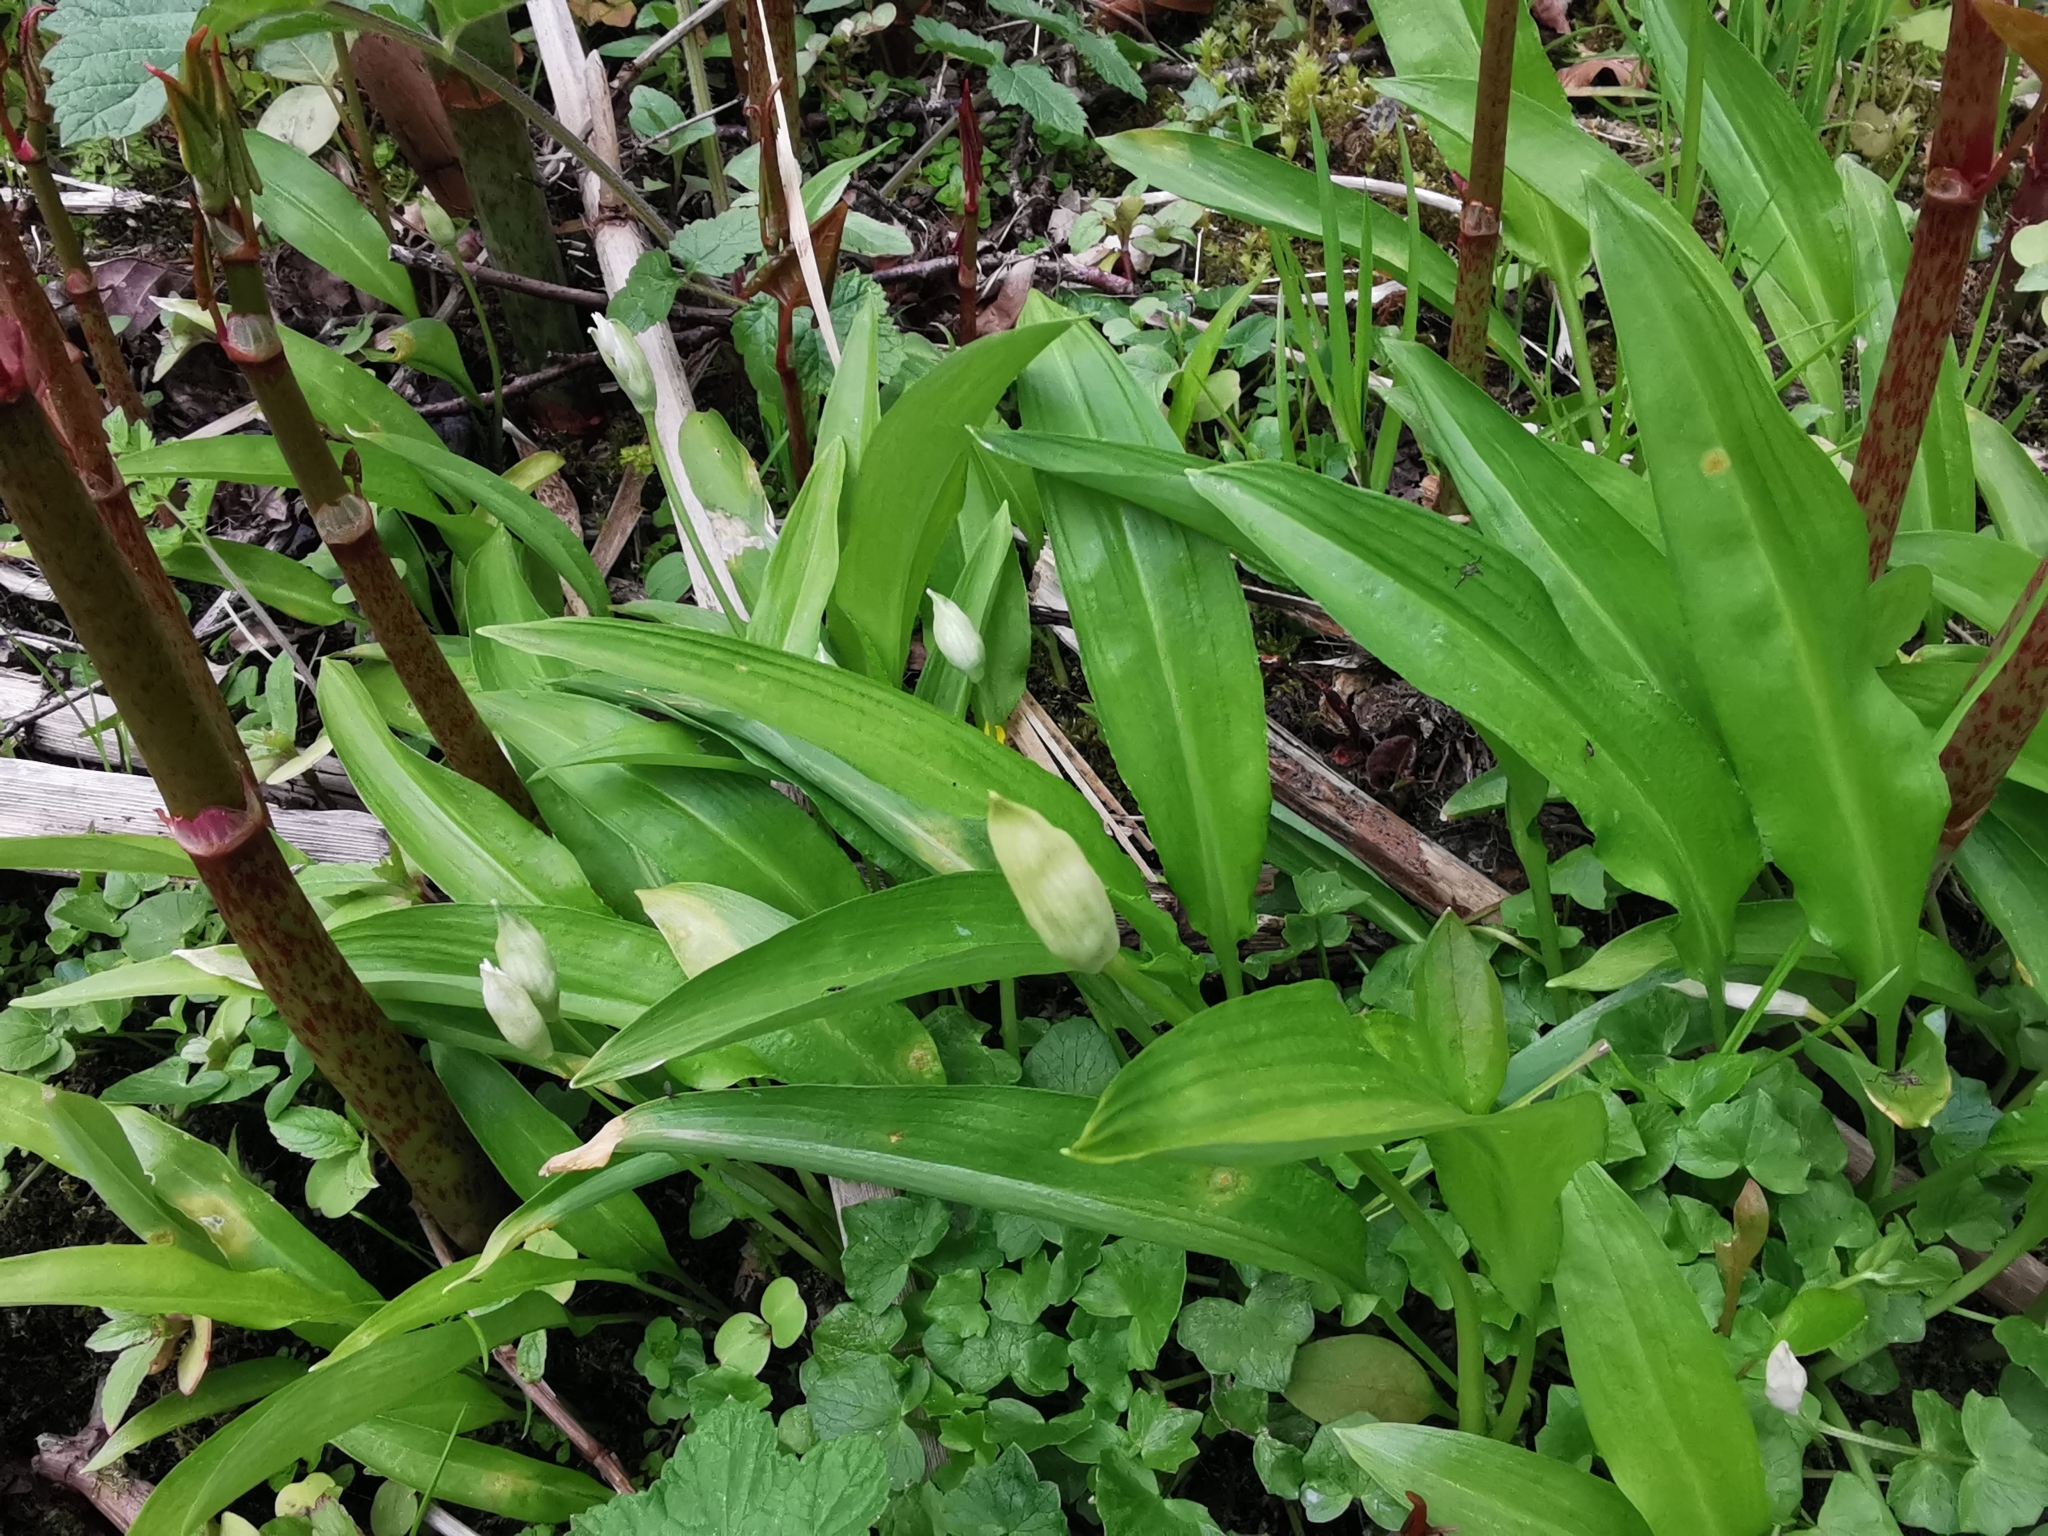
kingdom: Plantae
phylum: Tracheophyta
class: Liliopsida
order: Asparagales
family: Amaryllidaceae
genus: Allium
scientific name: Allium ursinum
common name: Ramsons
